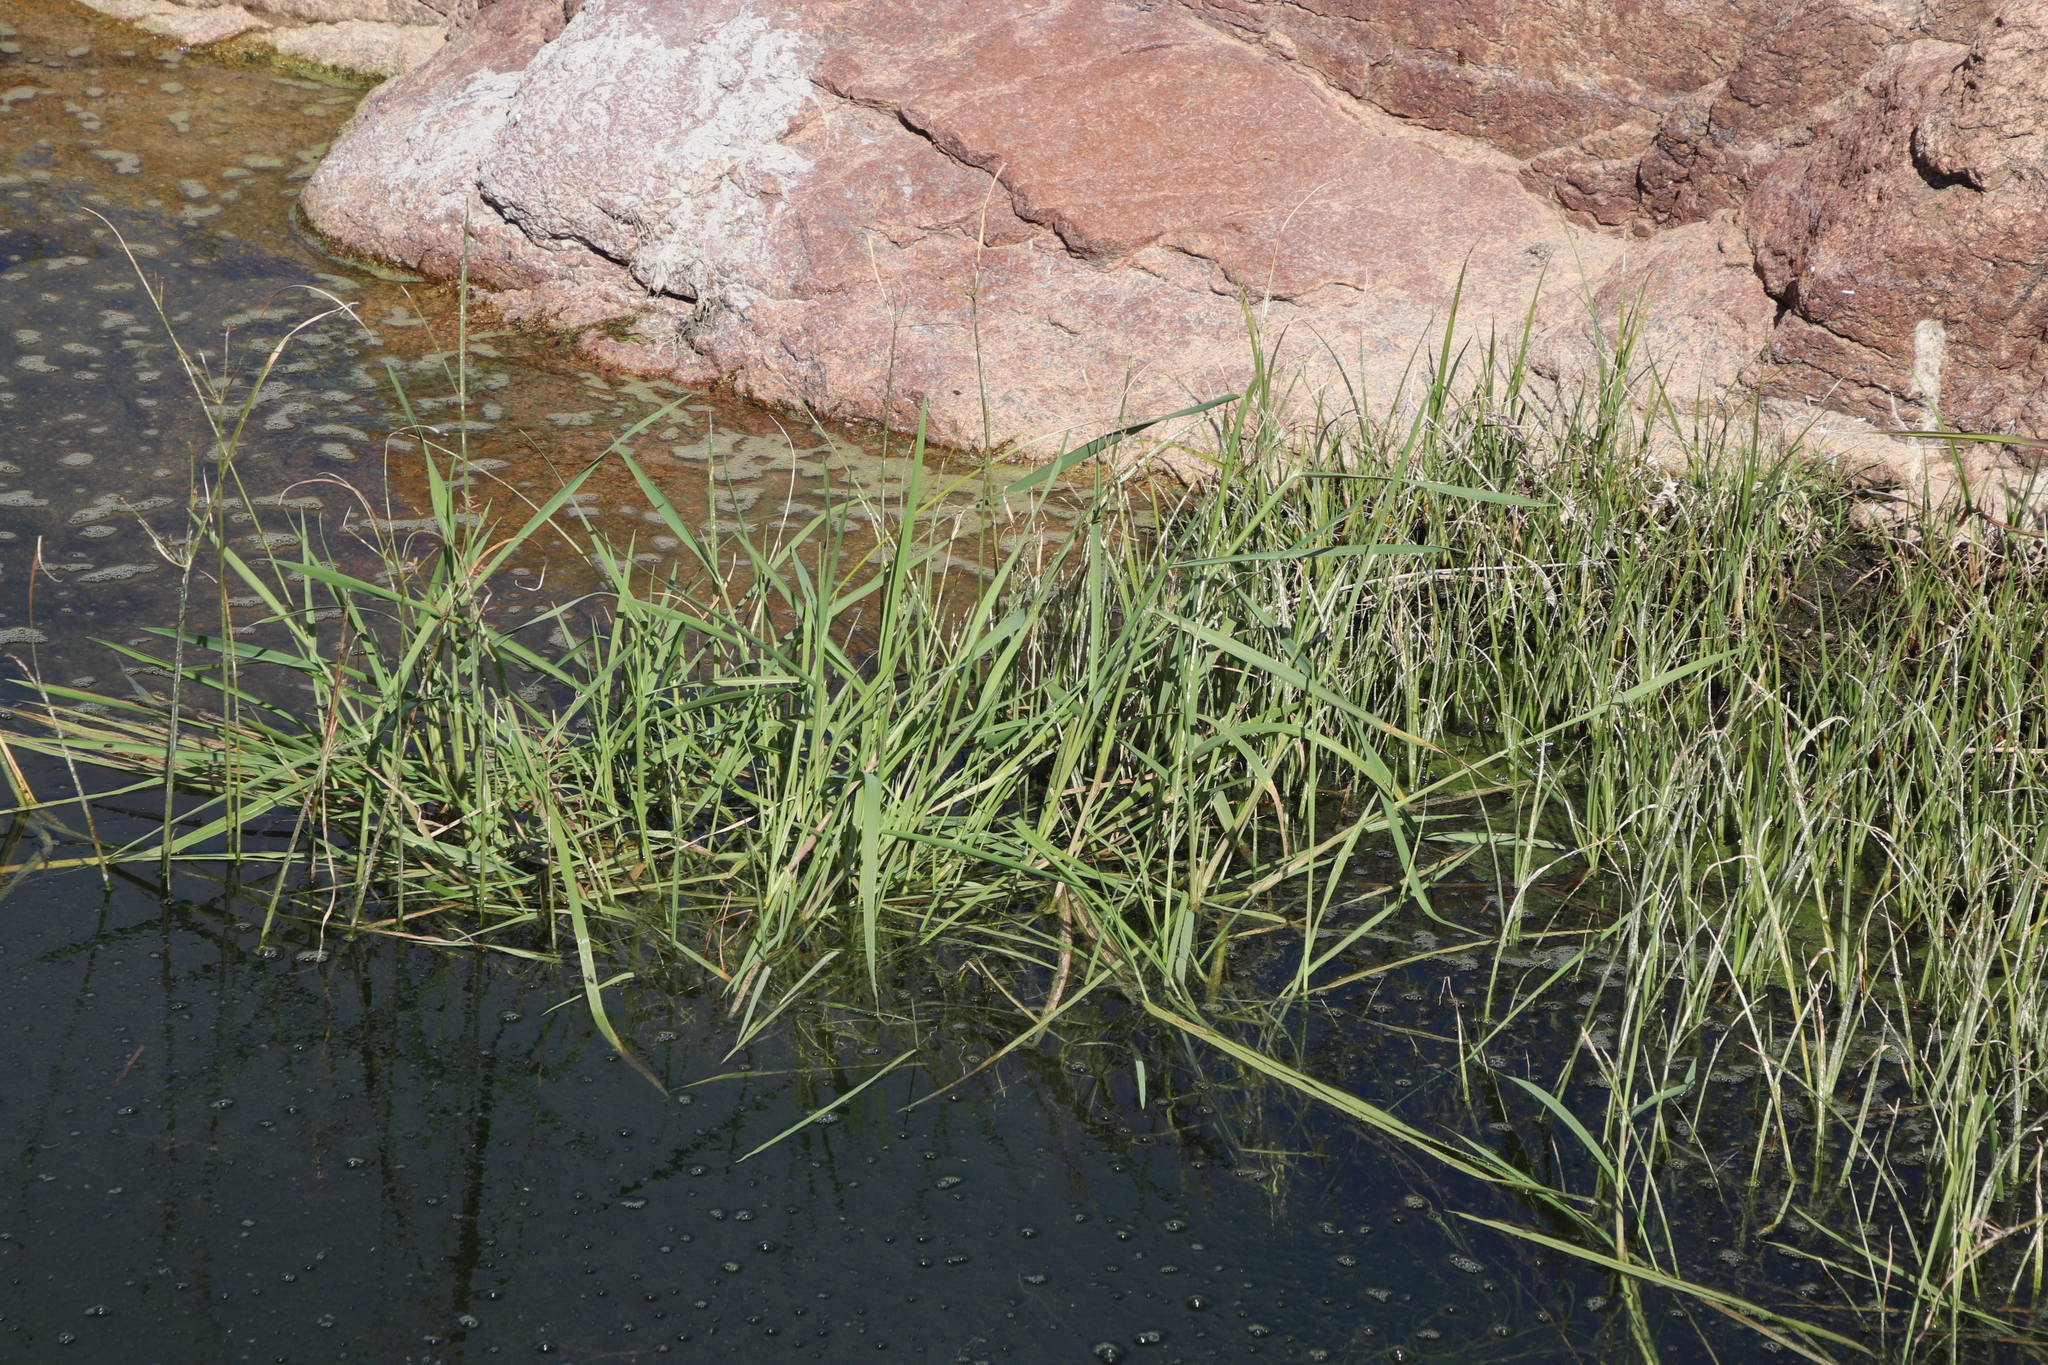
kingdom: Plantae
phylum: Tracheophyta
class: Liliopsida
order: Poales
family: Cyperaceae
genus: Cyperus
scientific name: Cyperus longus
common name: Galingale
